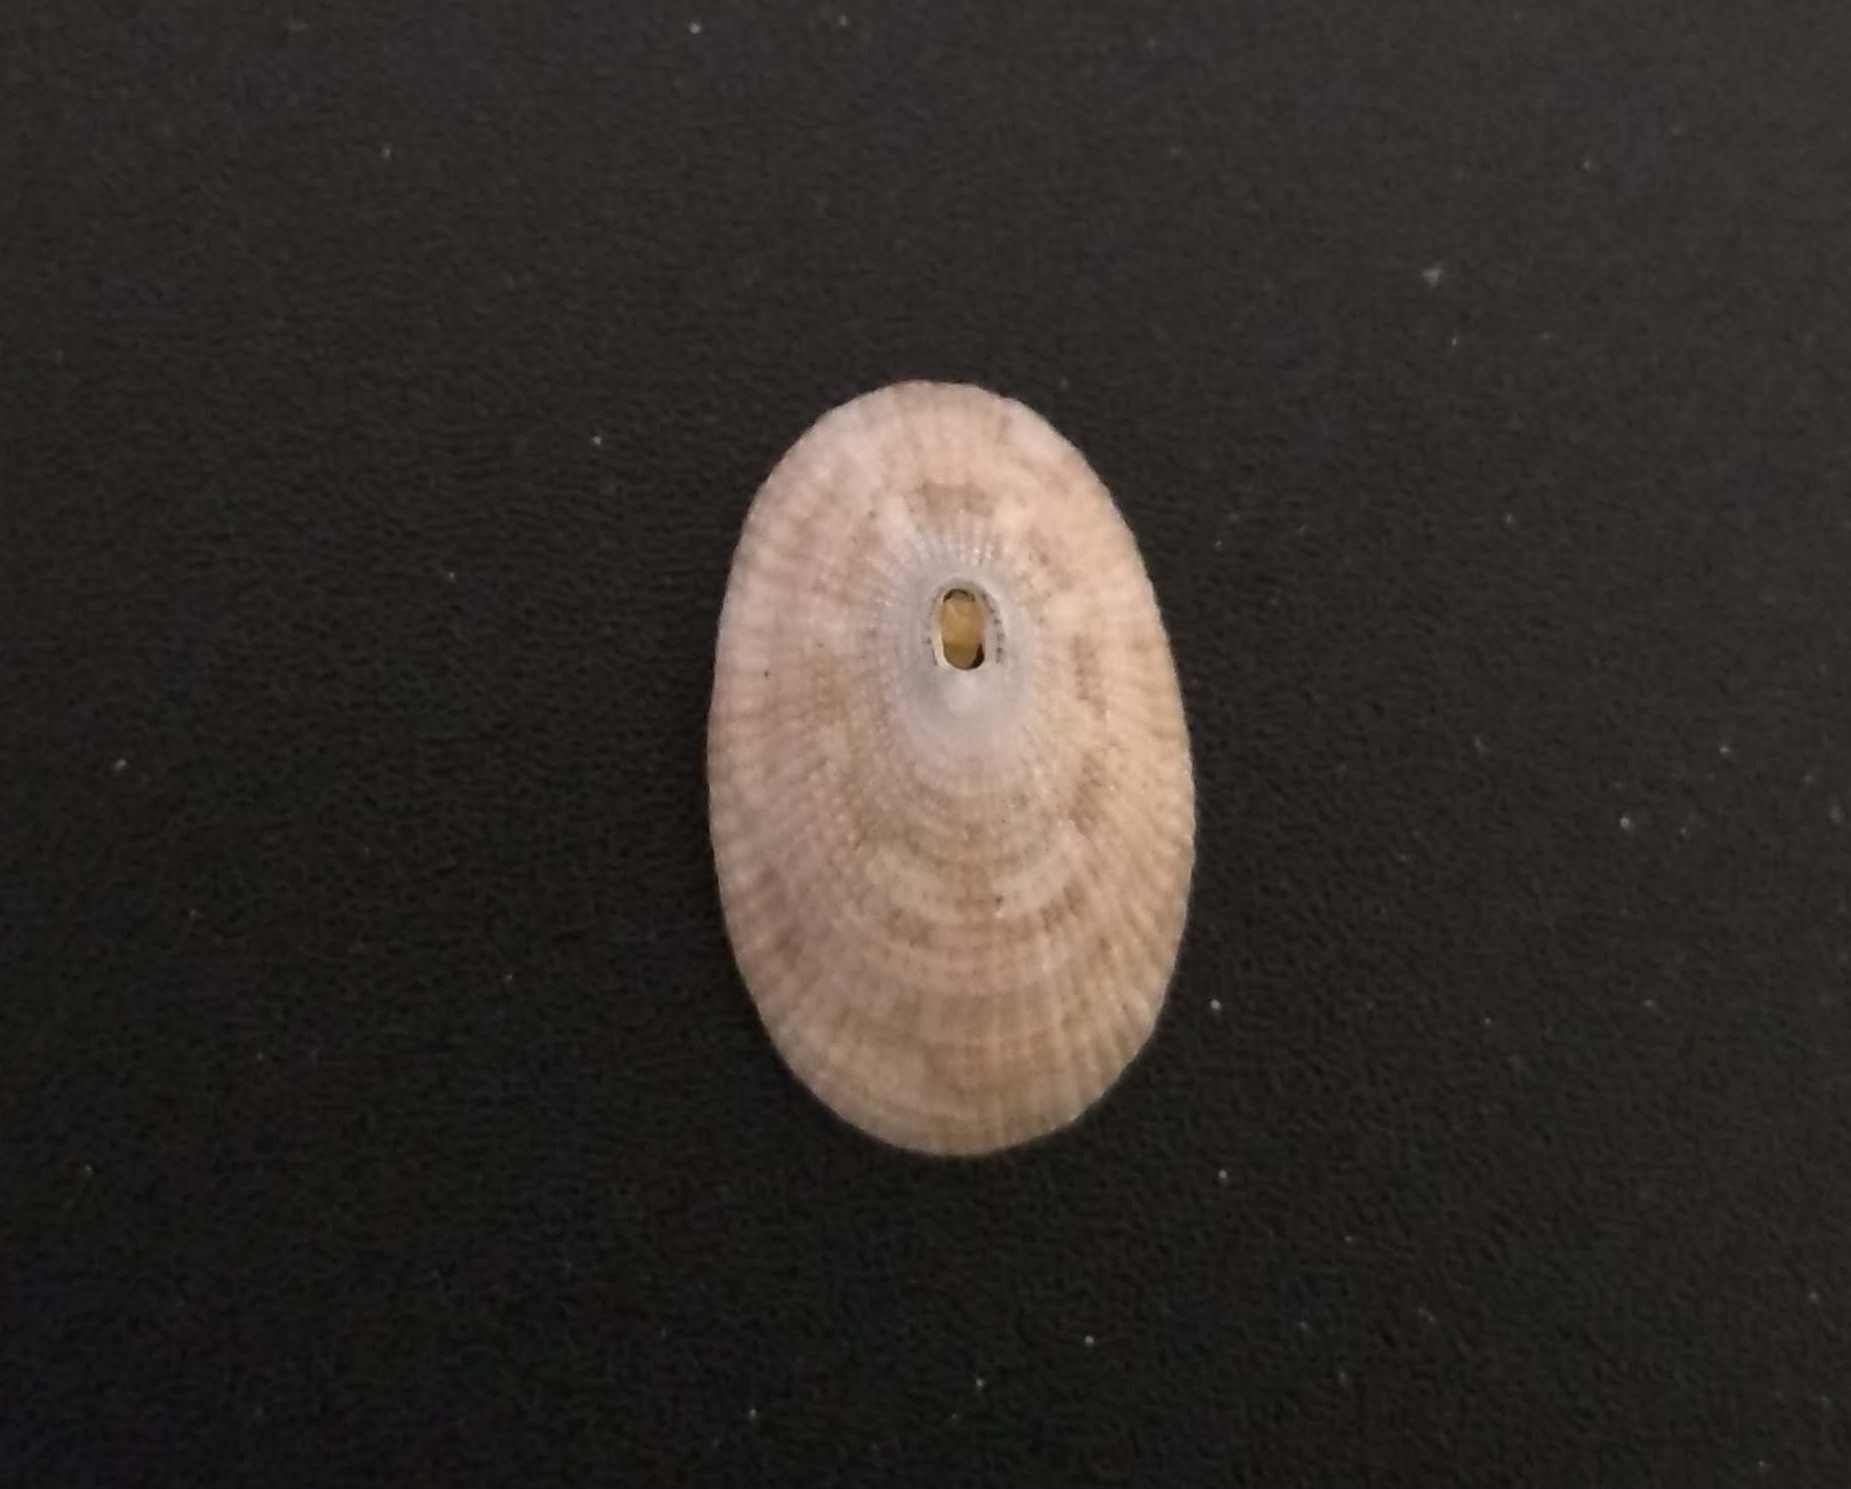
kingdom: Animalia
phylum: Mollusca
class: Gastropoda
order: Lepetellida
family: Fissurellidae
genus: Diodora
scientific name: Diodora cayenensis
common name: Cayenne keyhole limpet
